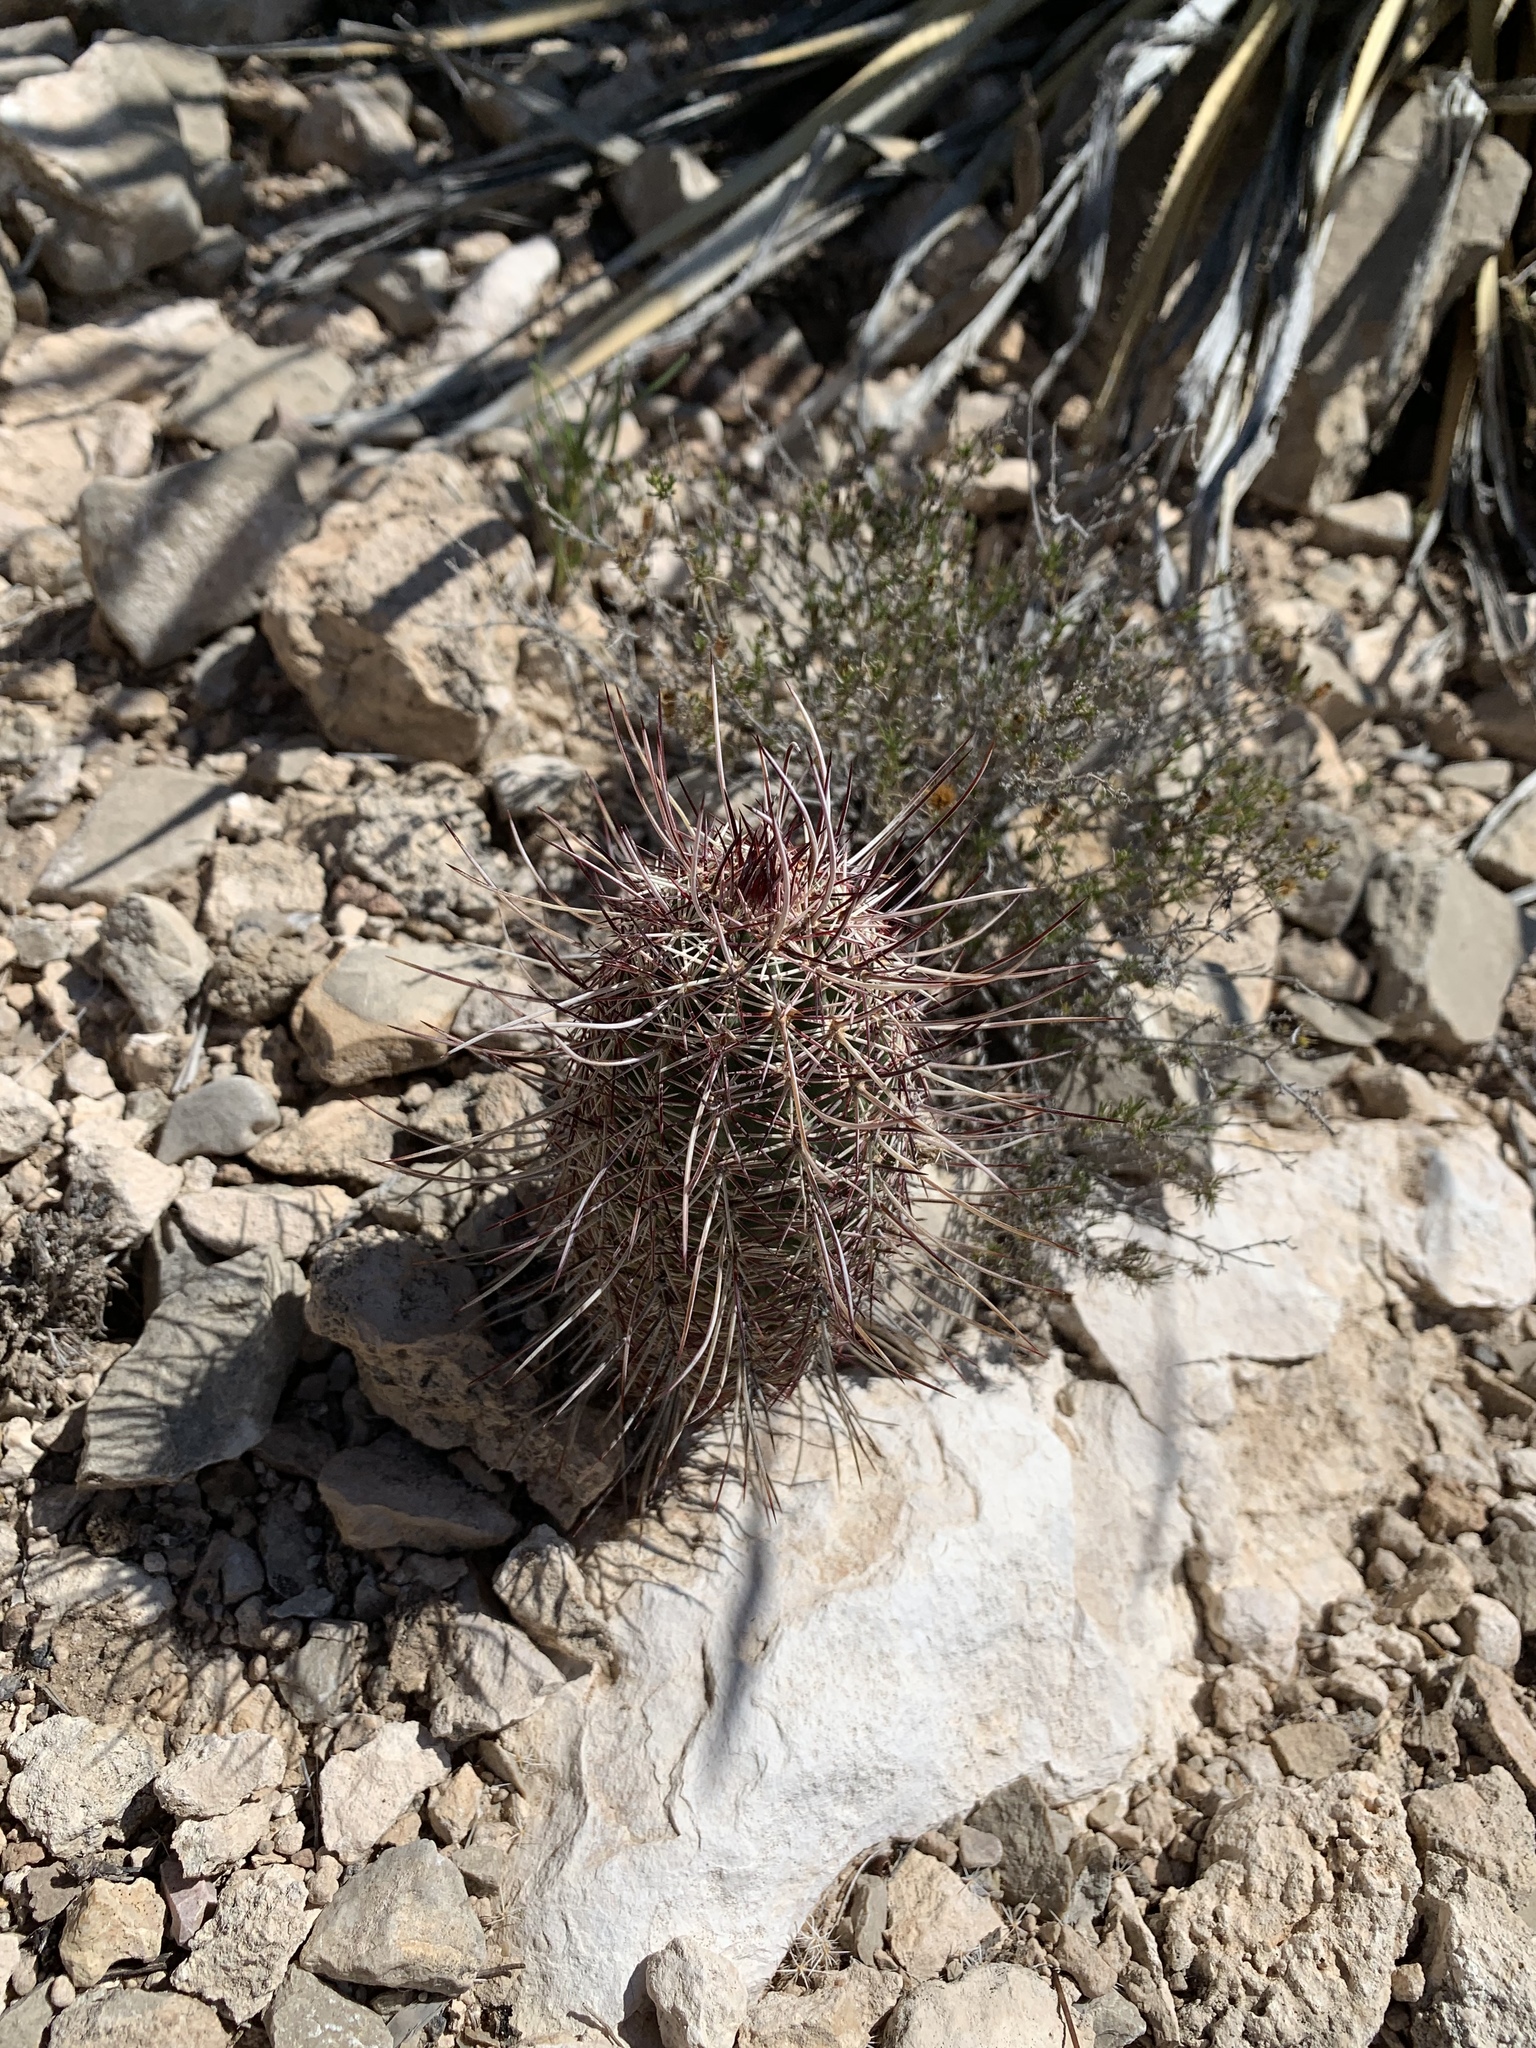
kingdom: Plantae
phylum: Tracheophyta
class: Magnoliopsida
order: Caryophyllales
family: Cactaceae
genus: Echinocereus
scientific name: Echinocereus viridiflorus
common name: Nylon hedgehog cactus
